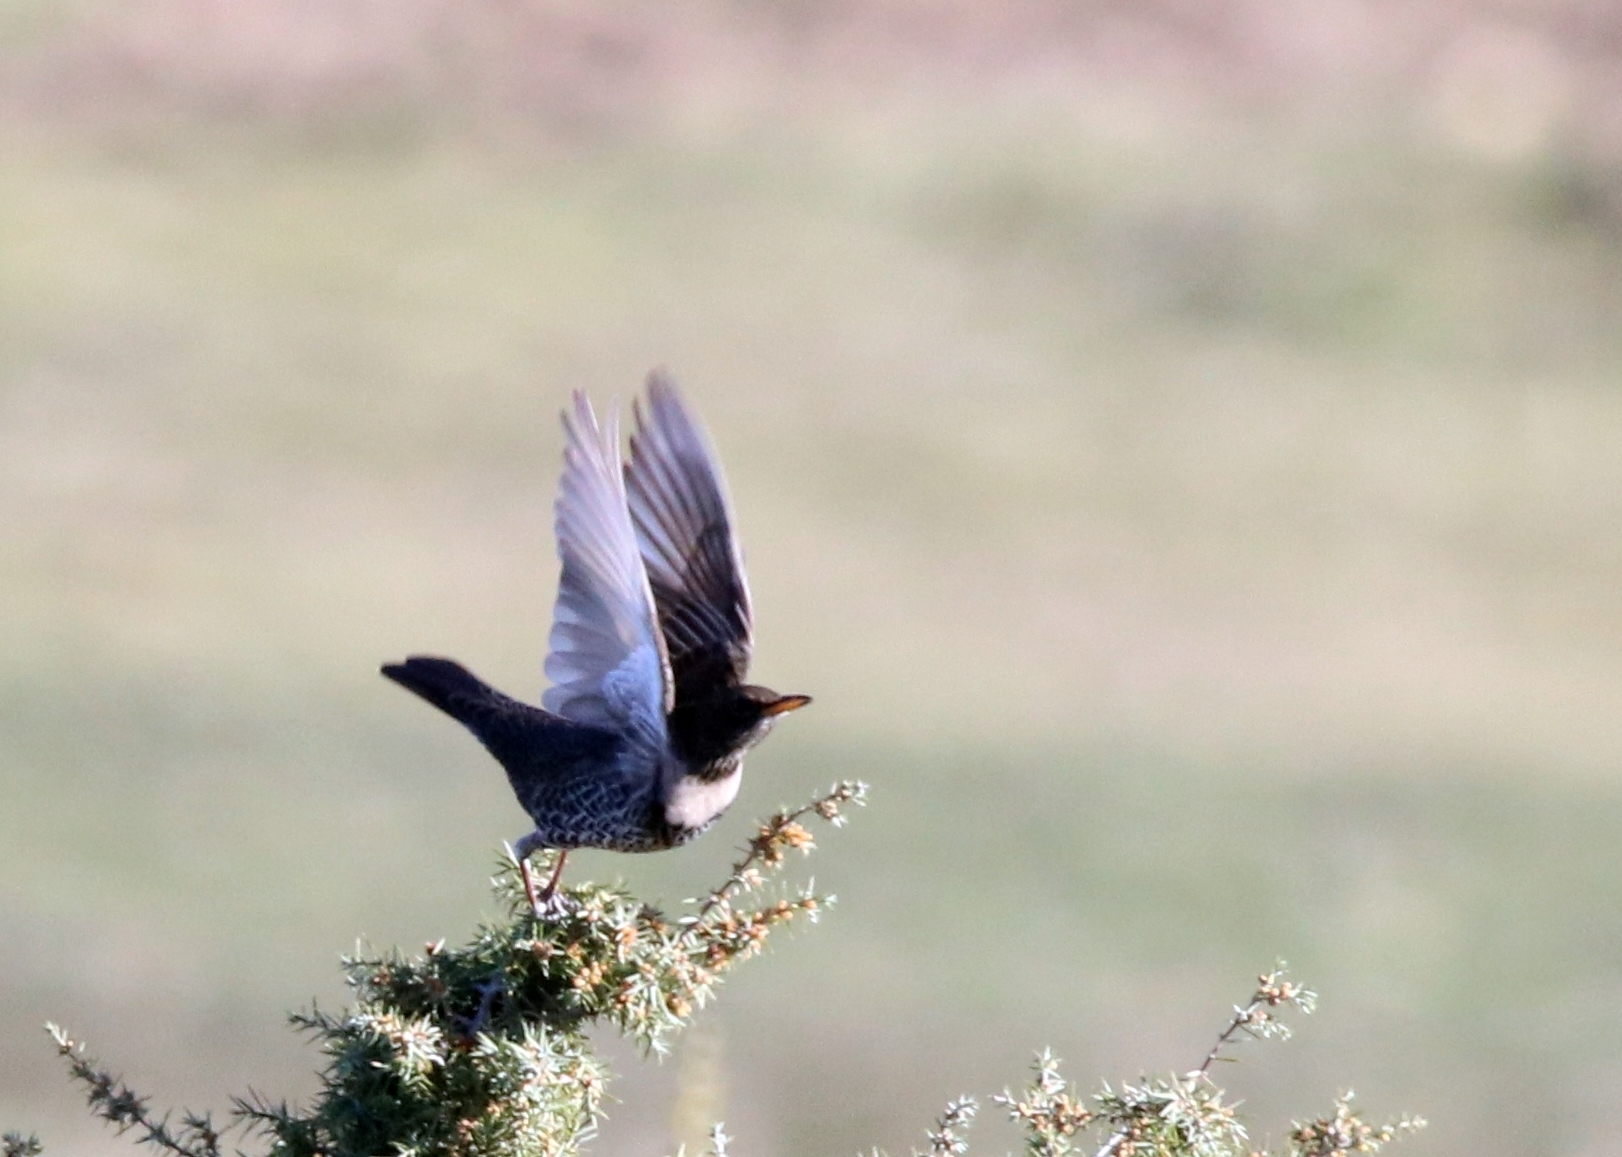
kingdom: Animalia
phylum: Chordata
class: Aves
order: Passeriformes
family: Turdidae
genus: Turdus
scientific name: Turdus torquatus
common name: Ring ouzel
